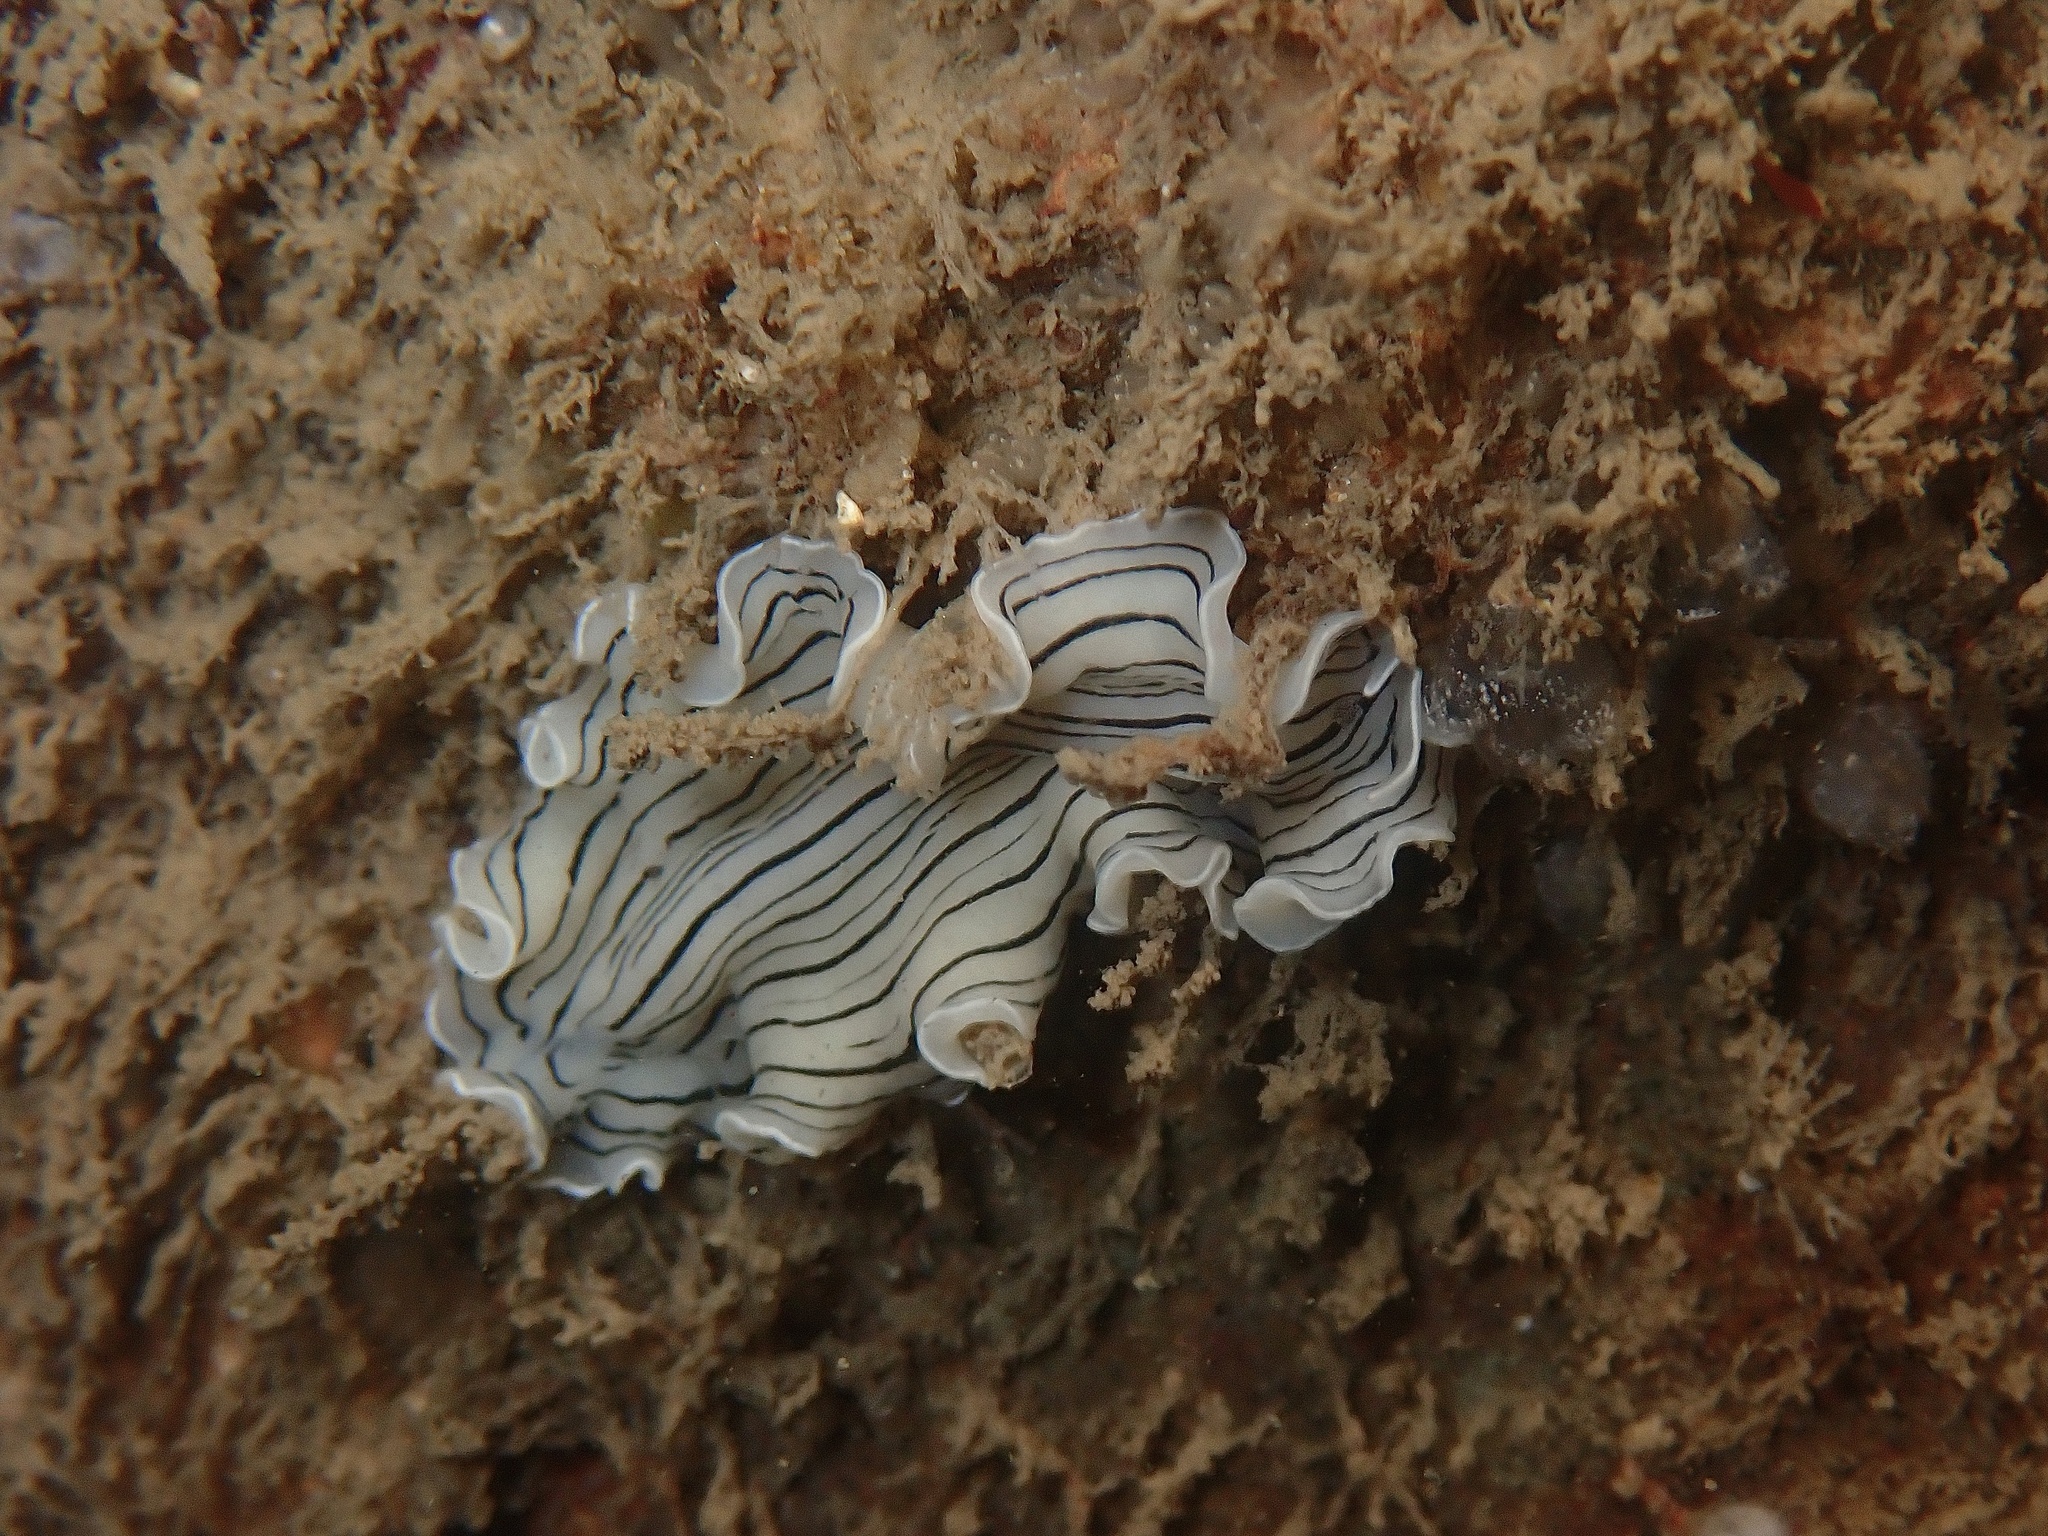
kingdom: Animalia
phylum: Platyhelminthes
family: Euryleptidae
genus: Prostheceraeus
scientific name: Prostheceraeus vittatus
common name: Candy striped flatworm
